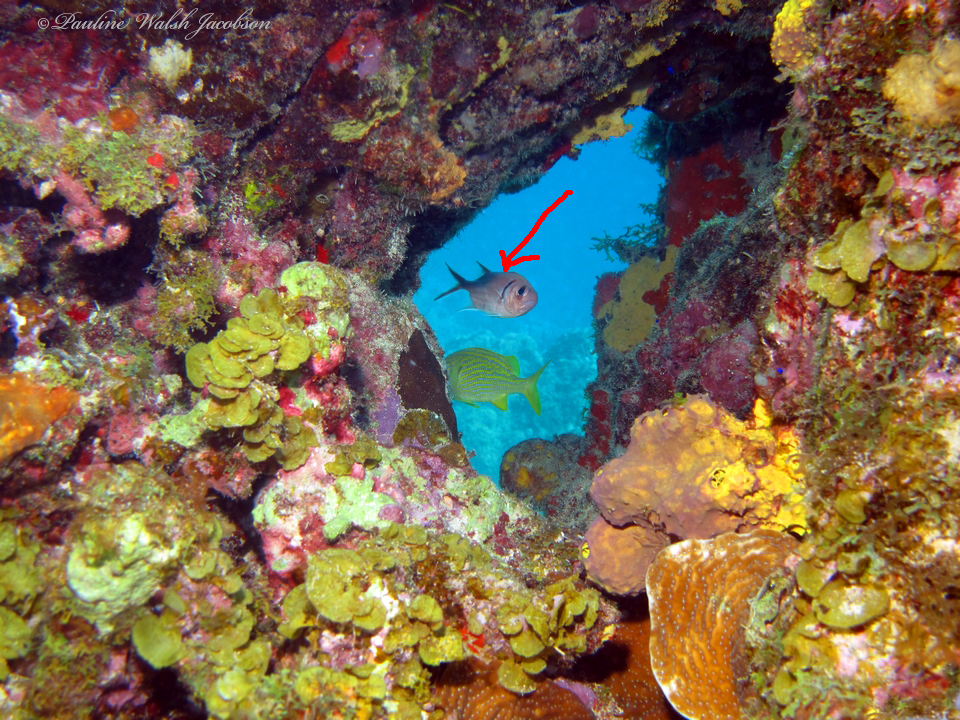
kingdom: Animalia
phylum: Chordata
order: Beryciformes
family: Holocentridae
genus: Myripristis
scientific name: Myripristis jacobus
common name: Blackbar soldierfish
